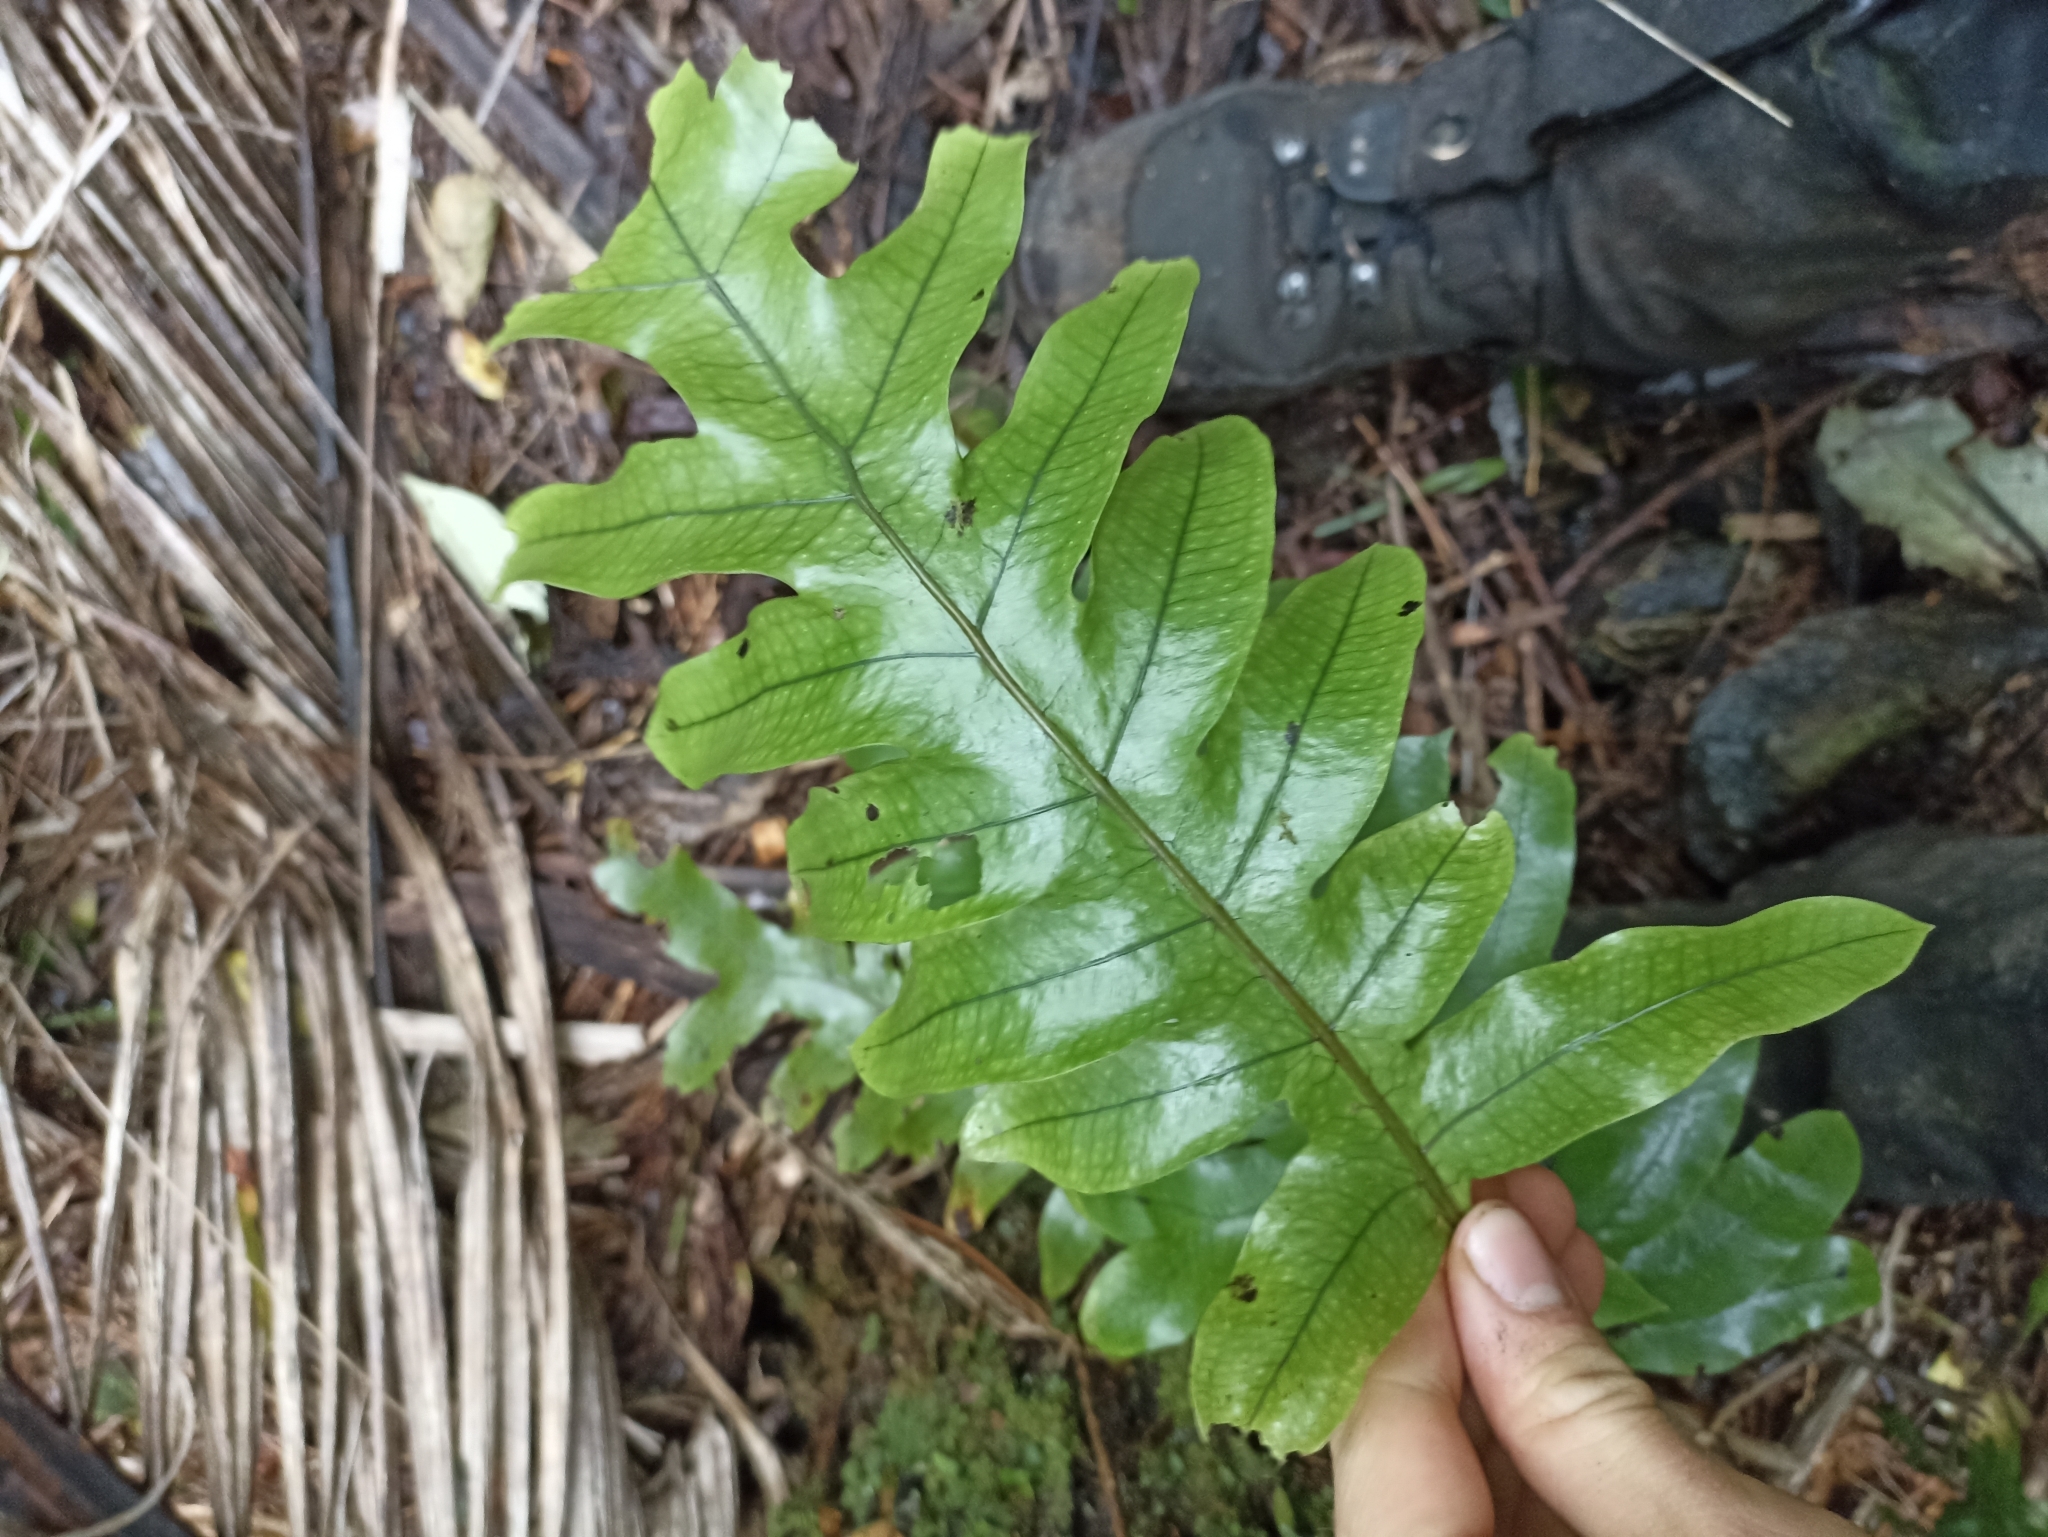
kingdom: Plantae
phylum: Tracheophyta
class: Polypodiopsida
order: Polypodiales
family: Polypodiaceae
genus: Lecanopteris
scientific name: Lecanopteris pustulata
